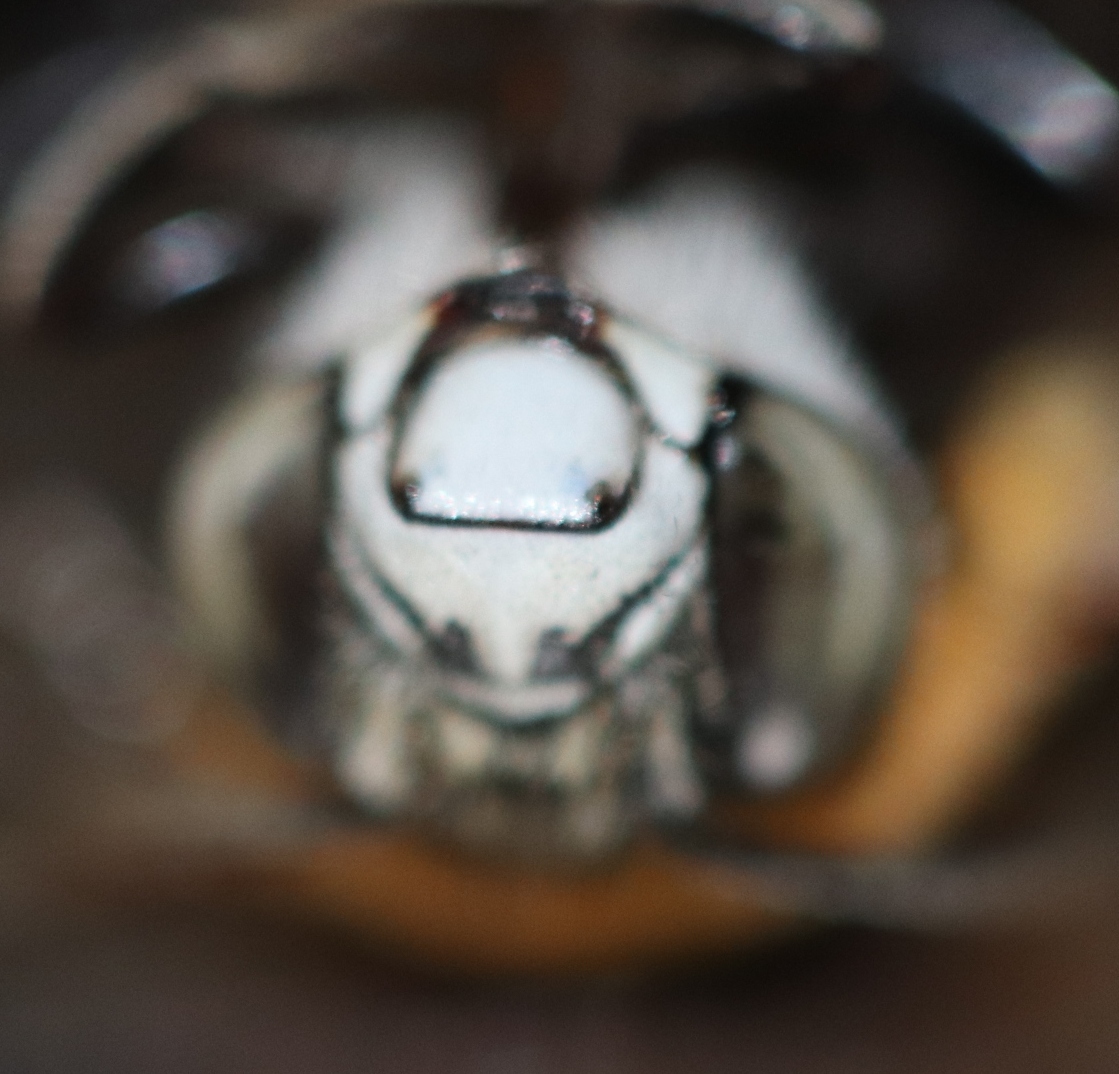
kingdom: Animalia
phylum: Arthropoda
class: Insecta
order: Hymenoptera
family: Apidae
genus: Amegilla
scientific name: Amegilla acraensis
